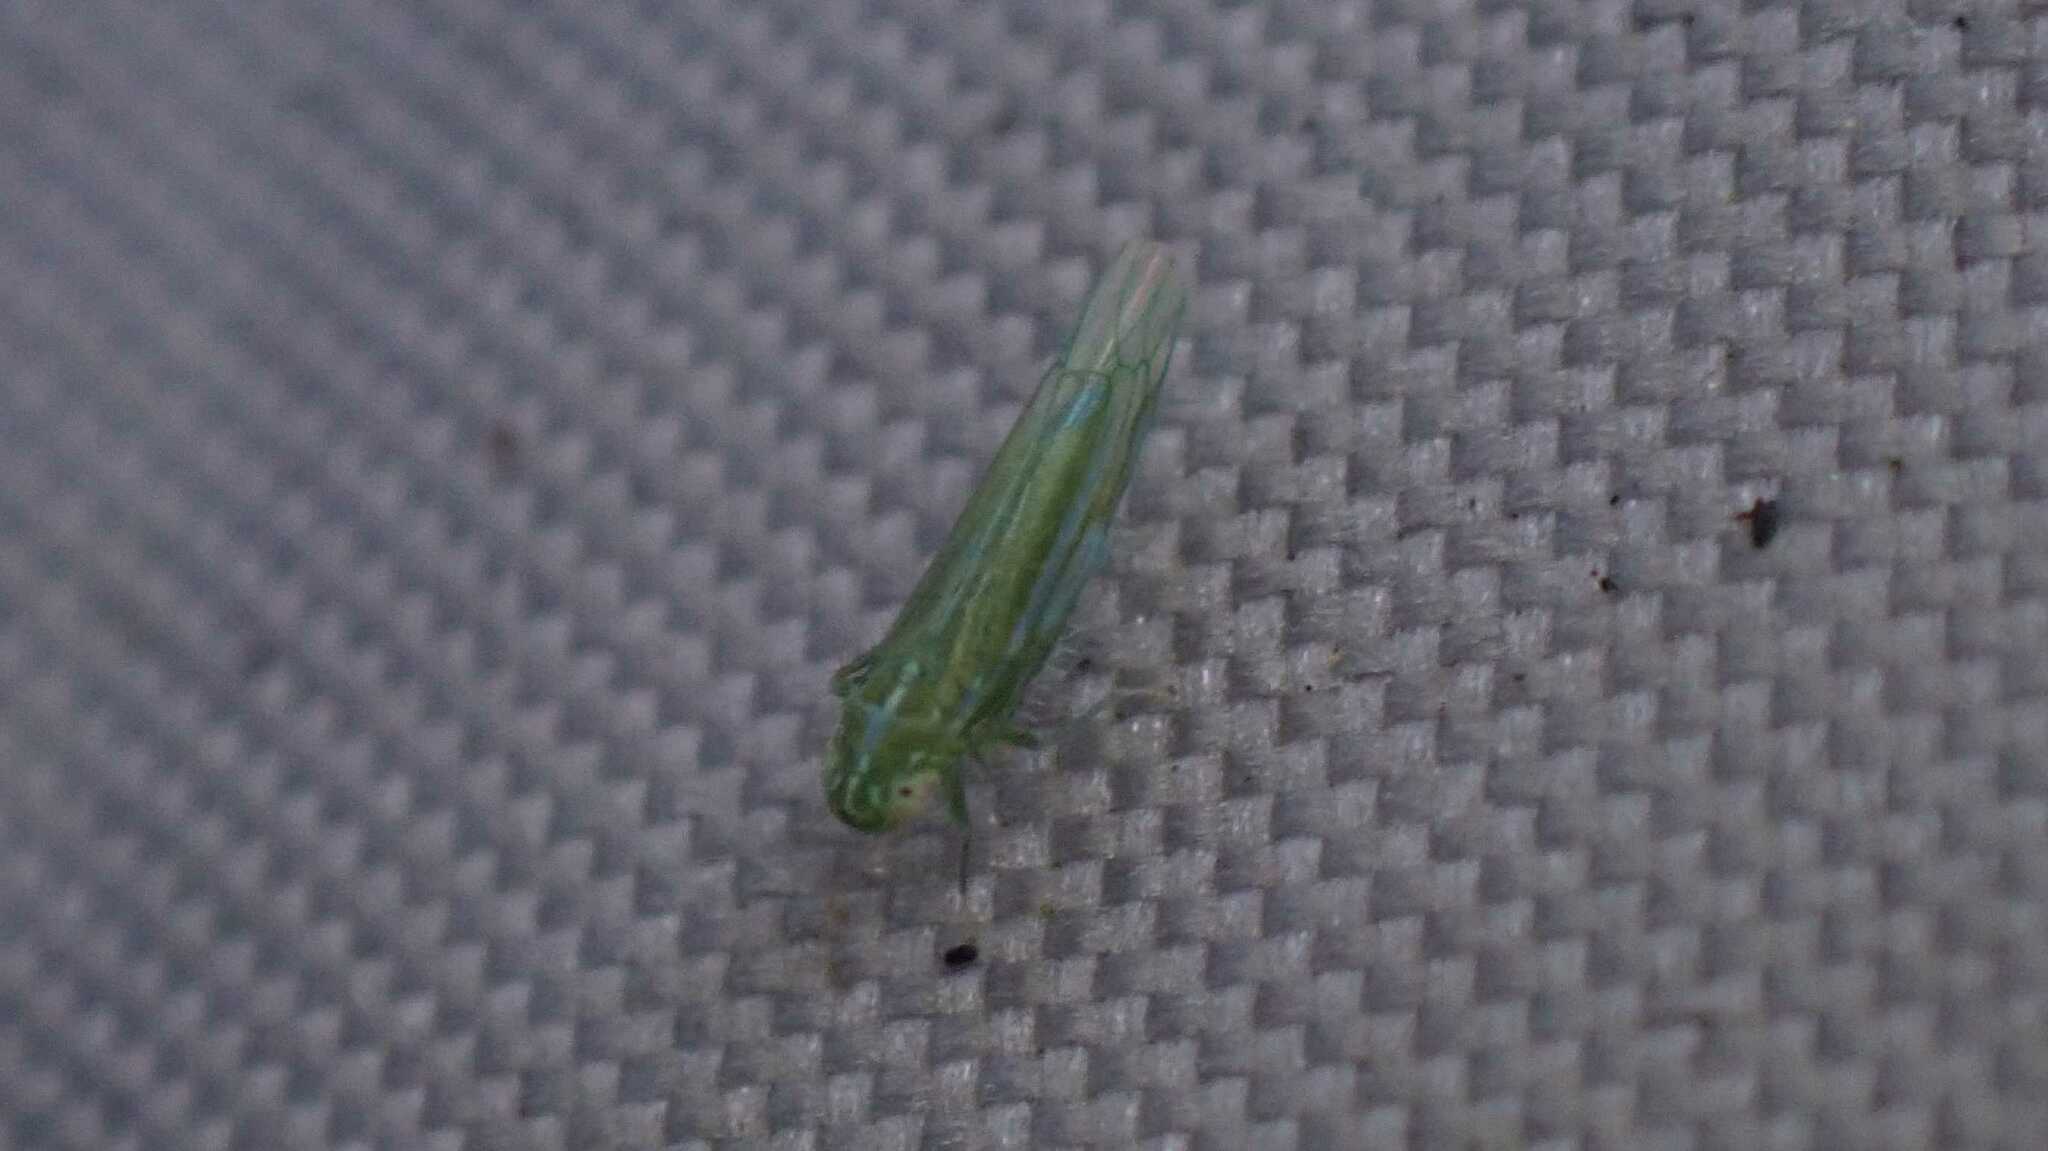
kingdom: Animalia
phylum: Arthropoda
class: Insecta
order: Hemiptera
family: Cicadellidae
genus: Hebata
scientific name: Hebata vitis
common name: The smaller green leafhopper
